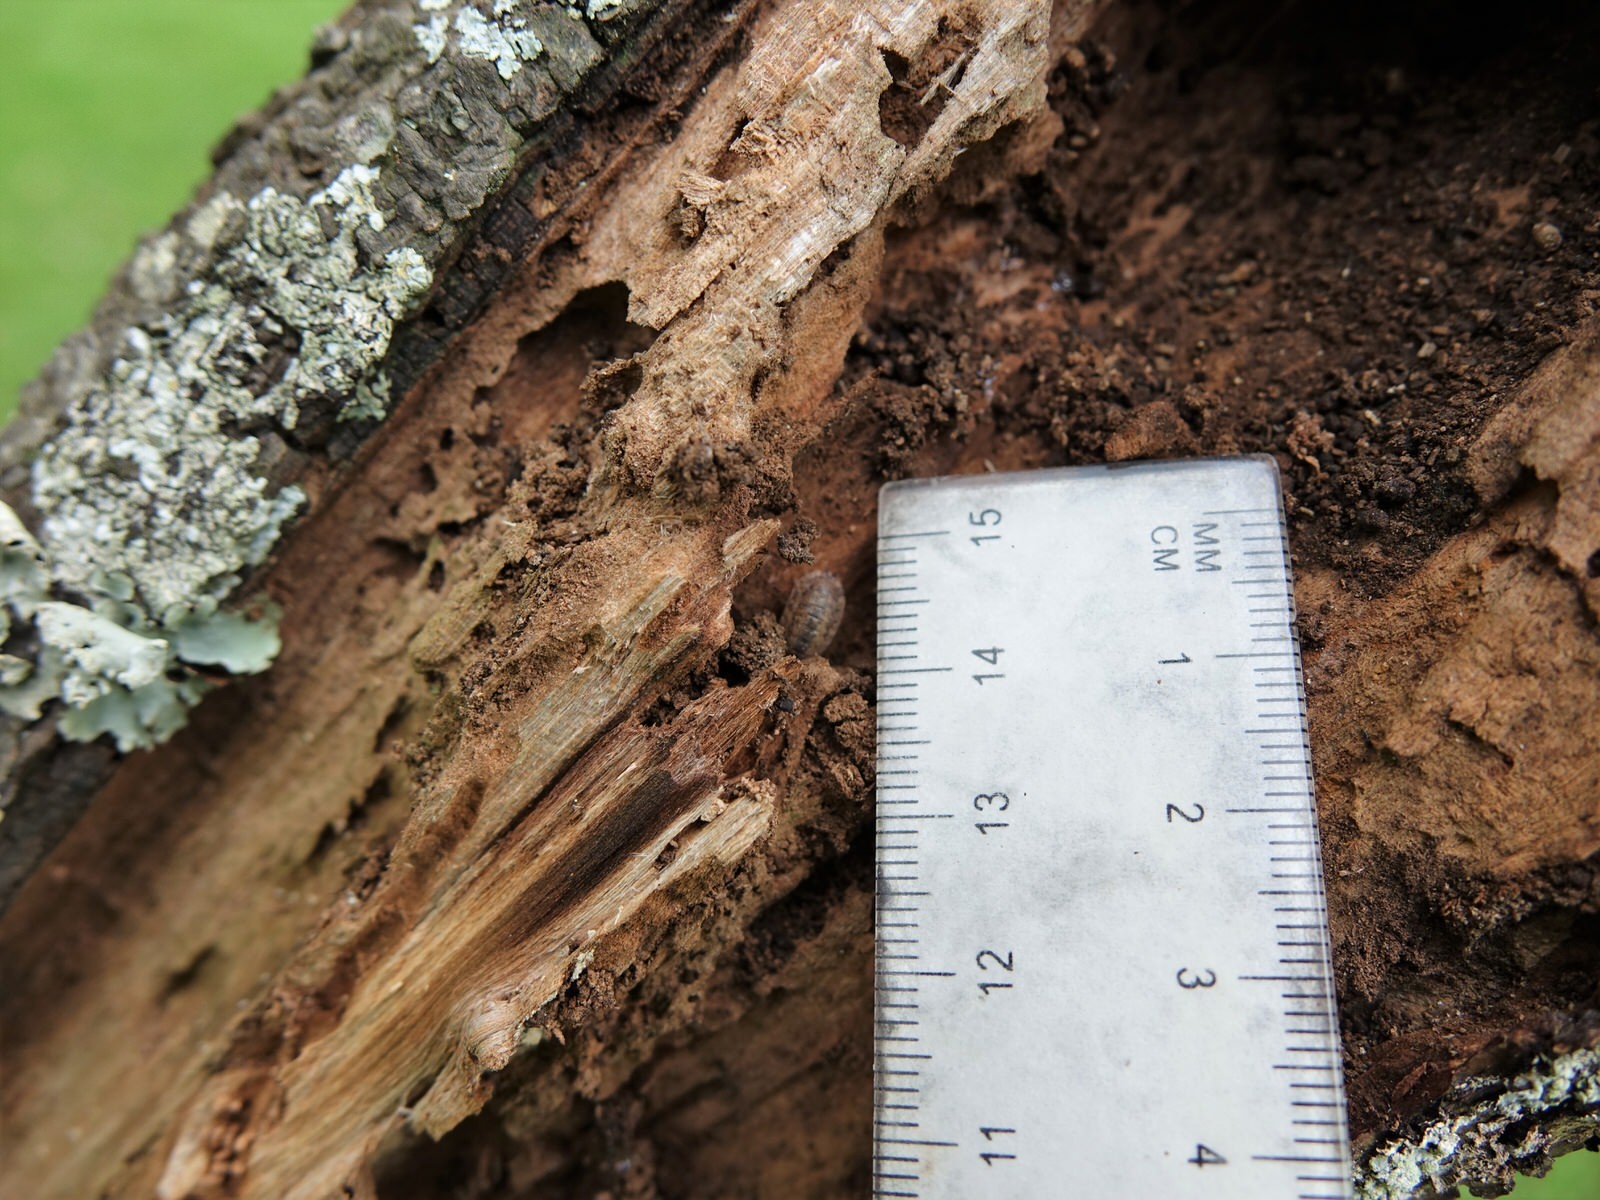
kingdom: Animalia
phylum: Arthropoda
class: Malacostraca
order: Isopoda
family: Porcellionidae
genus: Porcellio
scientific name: Porcellio scaber
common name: Common rough woodlouse
